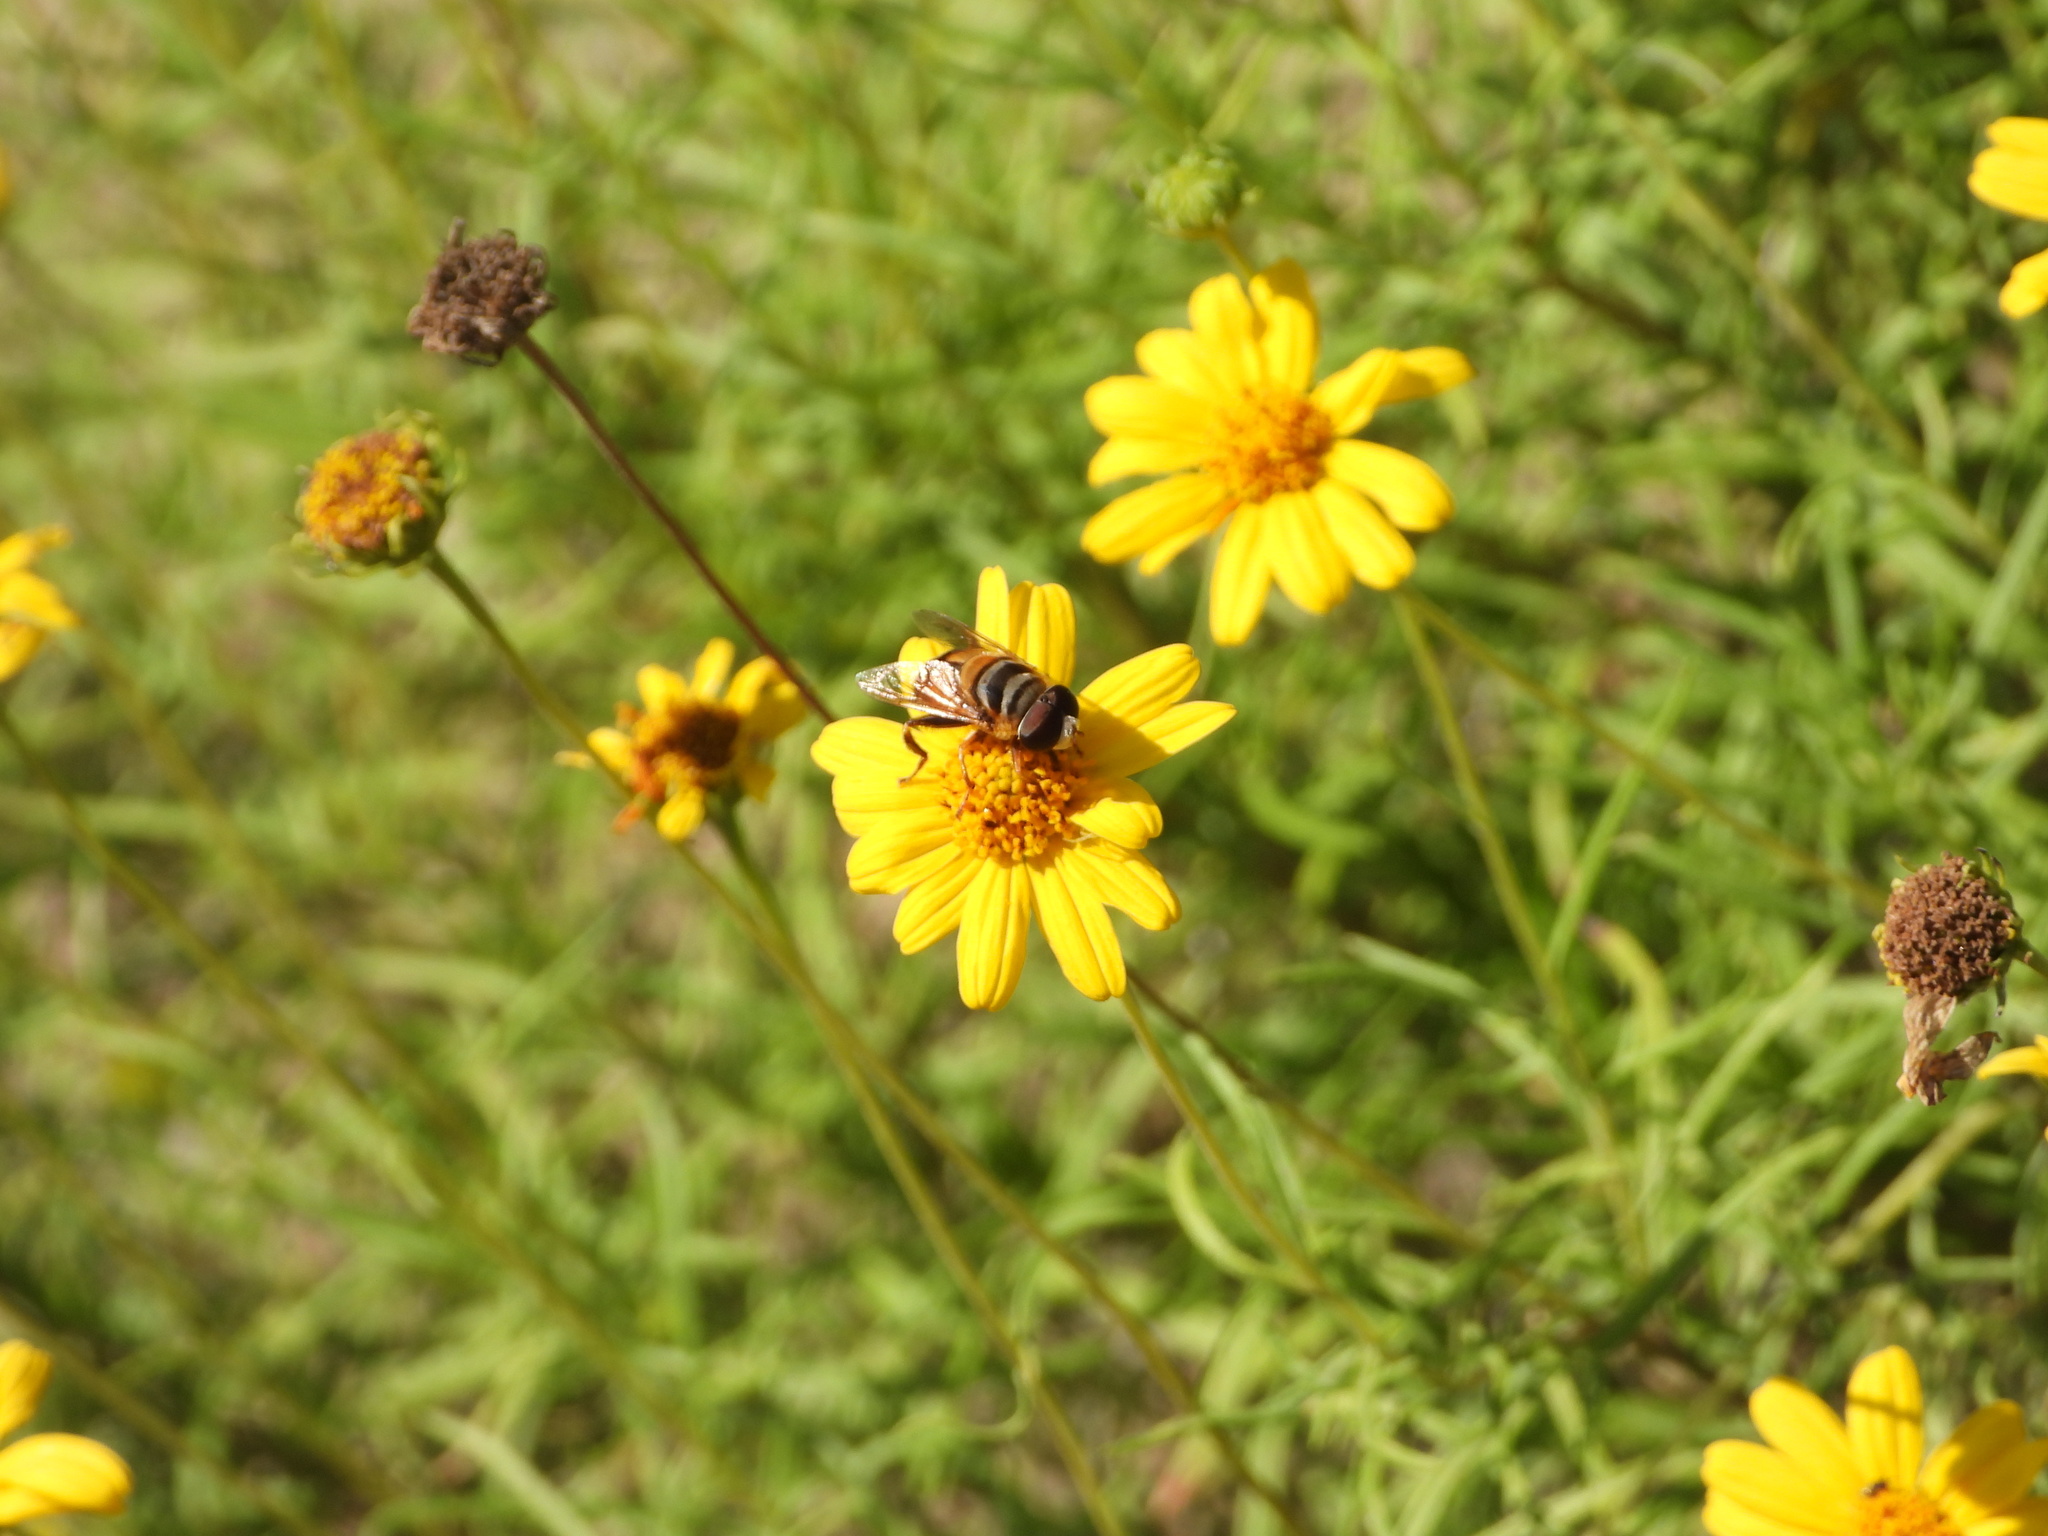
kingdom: Animalia
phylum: Arthropoda
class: Insecta
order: Diptera
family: Syrphidae
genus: Palpada
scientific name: Palpada vinetorum
